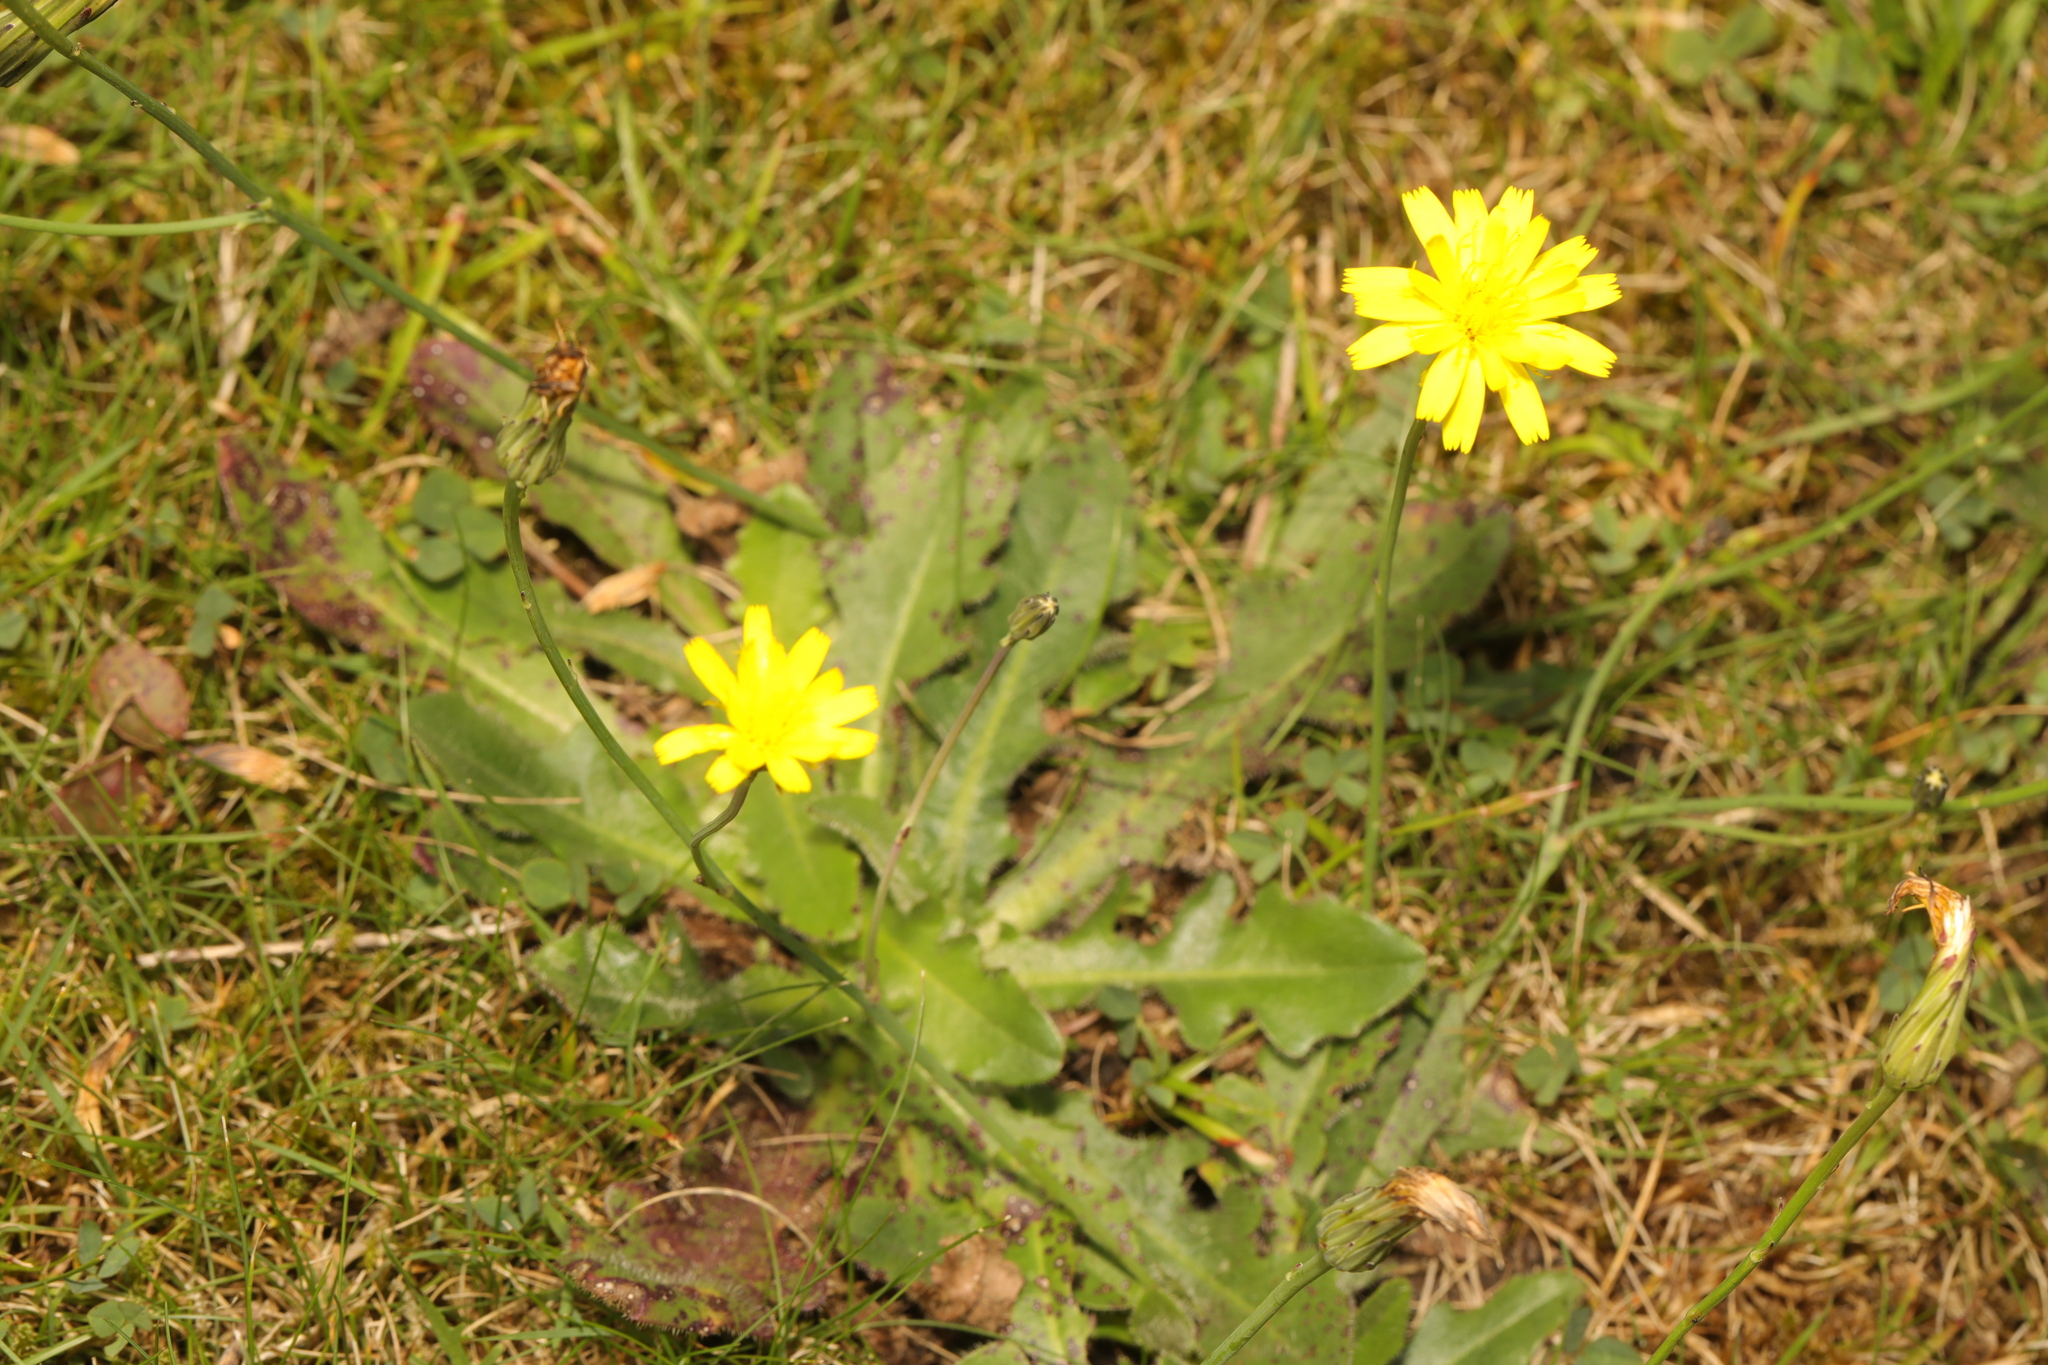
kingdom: Plantae
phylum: Tracheophyta
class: Magnoliopsida
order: Asterales
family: Asteraceae
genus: Hypochaeris
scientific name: Hypochaeris radicata
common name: Flatweed
